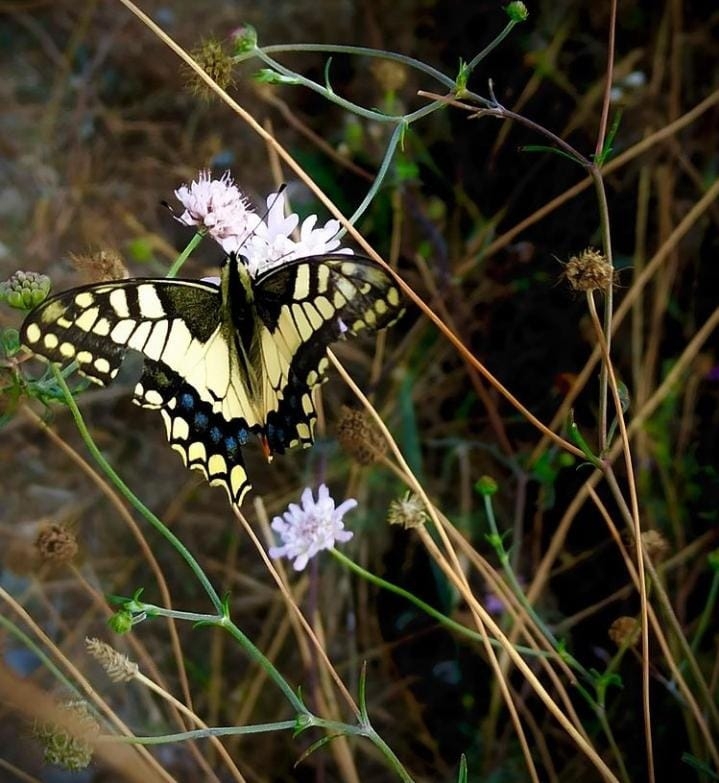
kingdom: Animalia
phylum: Arthropoda
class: Insecta
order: Lepidoptera
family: Papilionidae
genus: Papilio
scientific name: Papilio machaon
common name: Swallowtail
